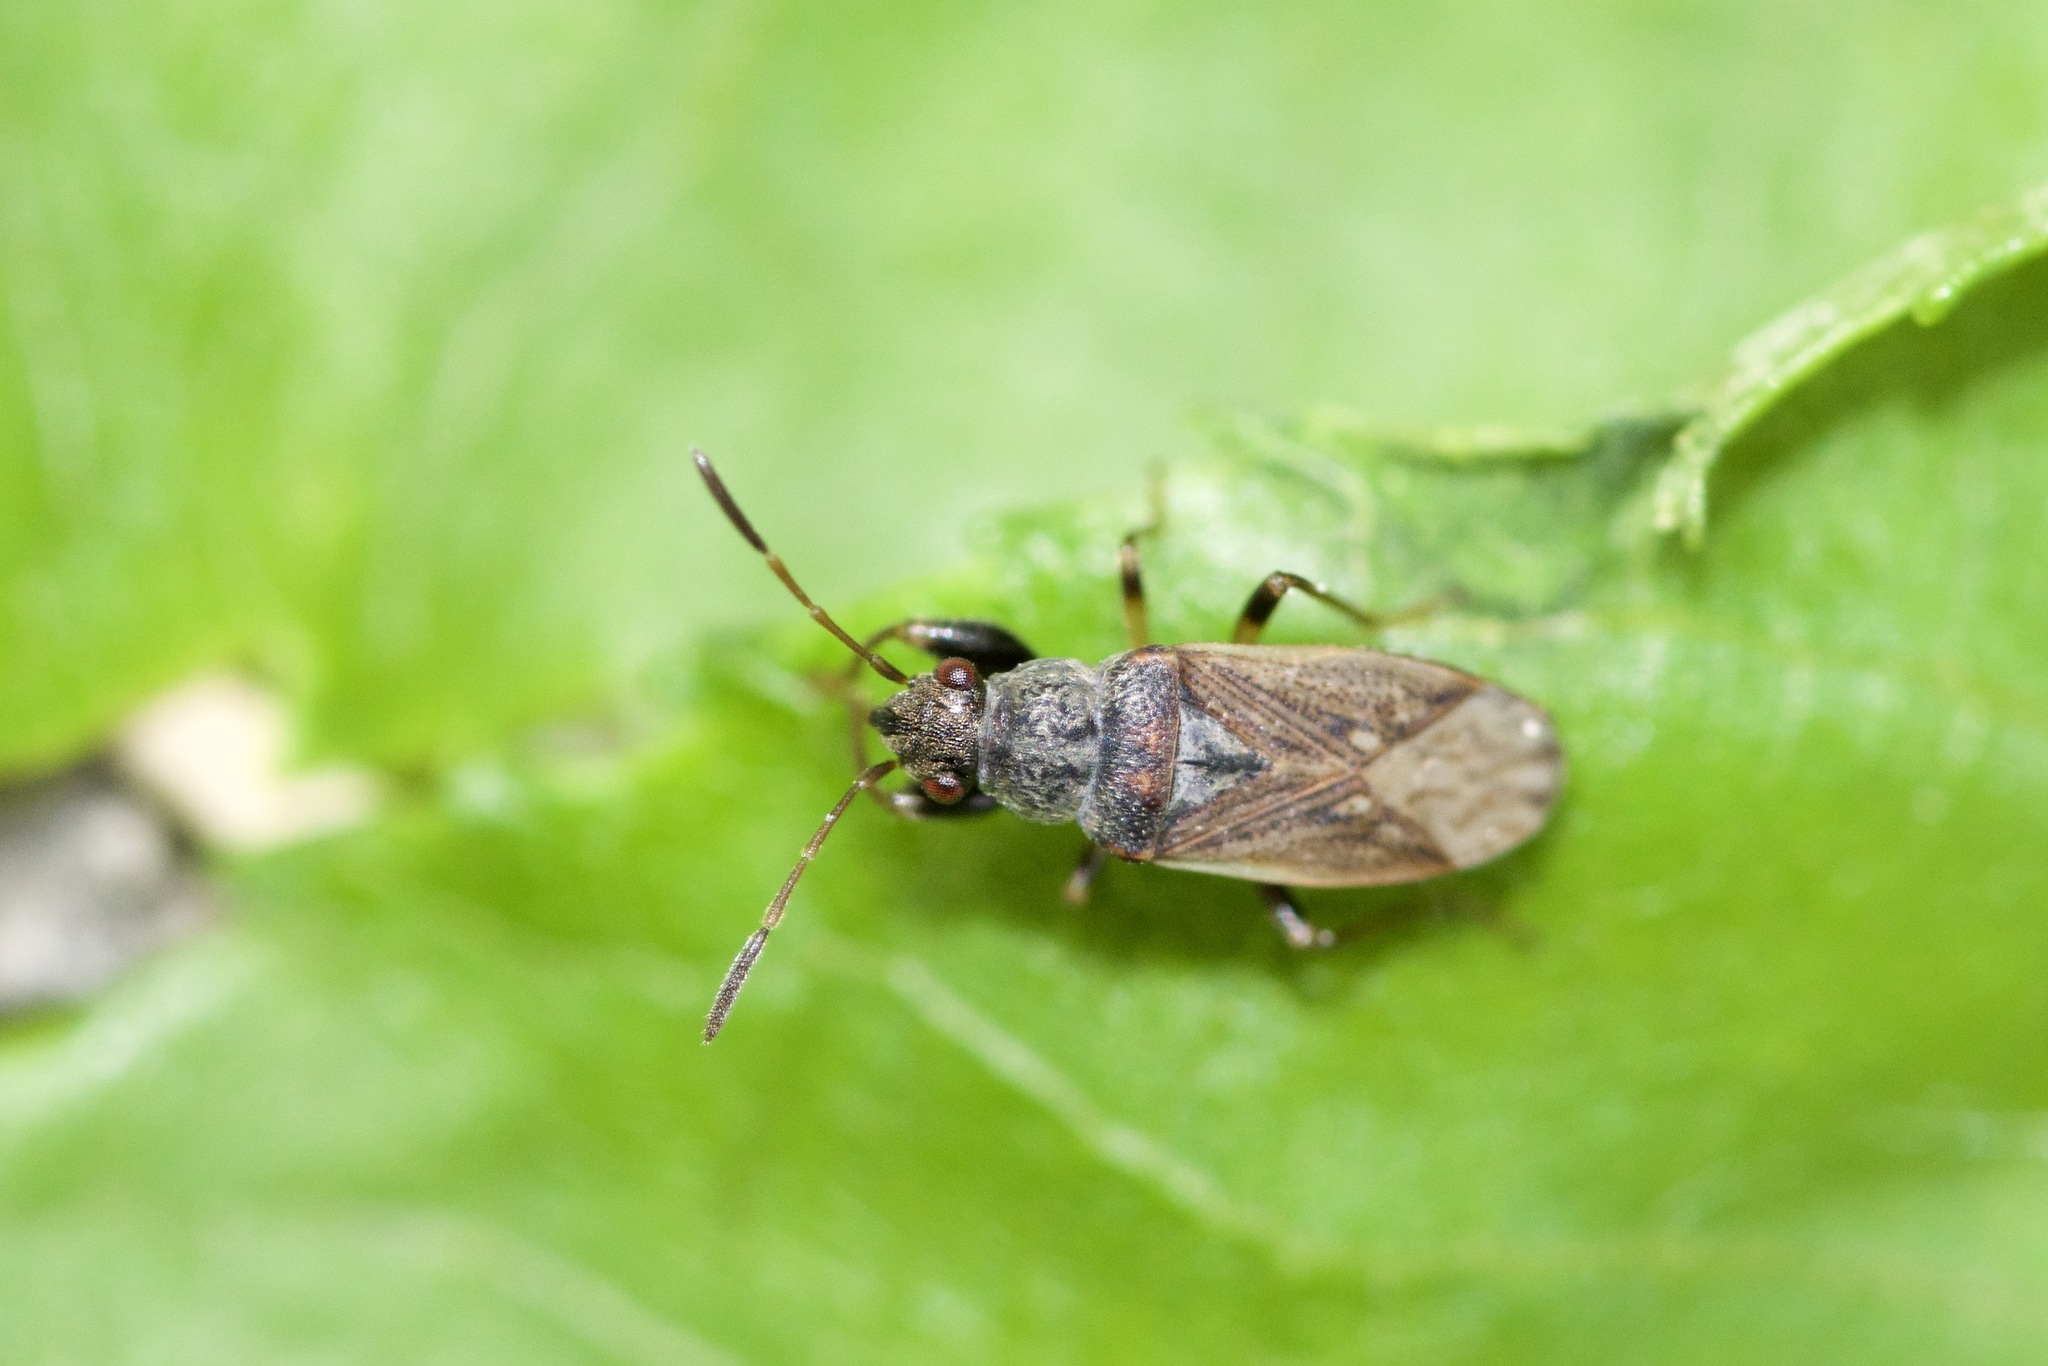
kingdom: Animalia
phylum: Arthropoda
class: Insecta
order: Hemiptera
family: Rhyparochromidae
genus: Pseudopachybrachius
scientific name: Pseudopachybrachius basalis
